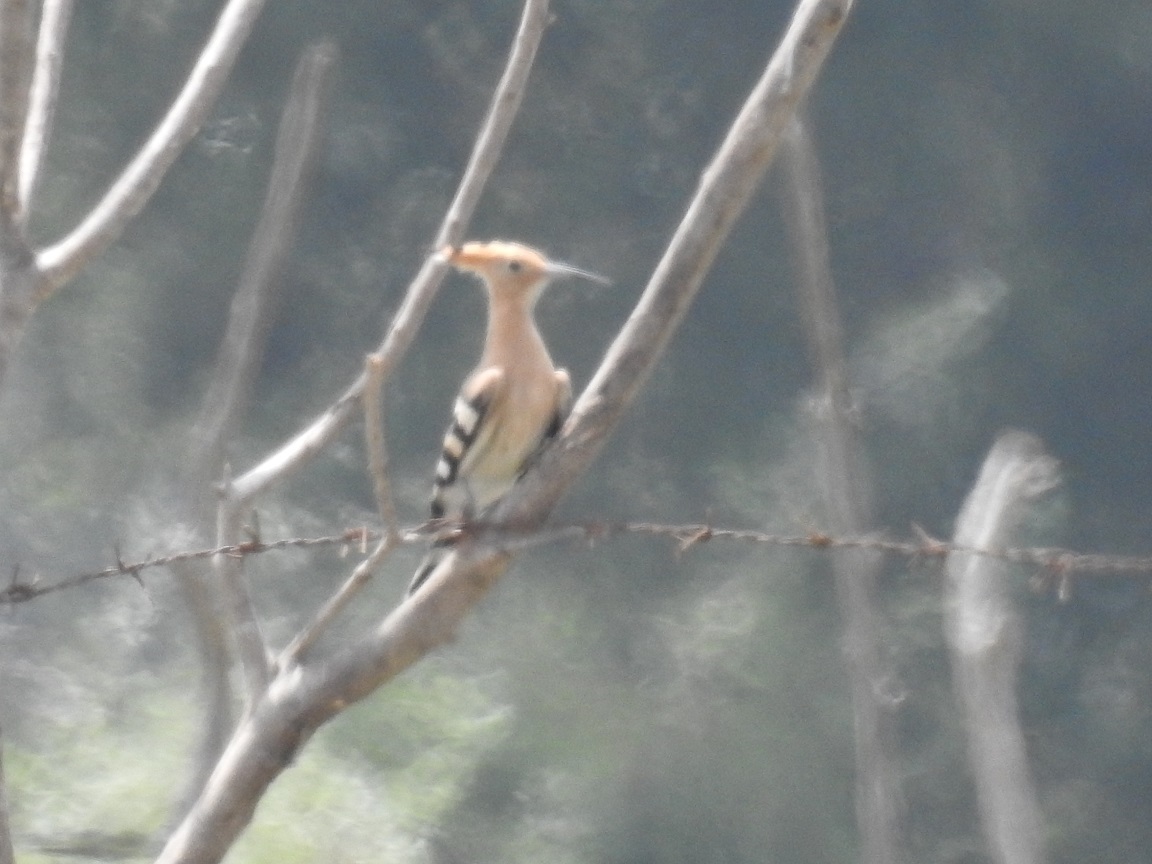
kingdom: Animalia
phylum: Chordata
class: Aves
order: Bucerotiformes
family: Upupidae
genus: Upupa
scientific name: Upupa epops
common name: Eurasian hoopoe
